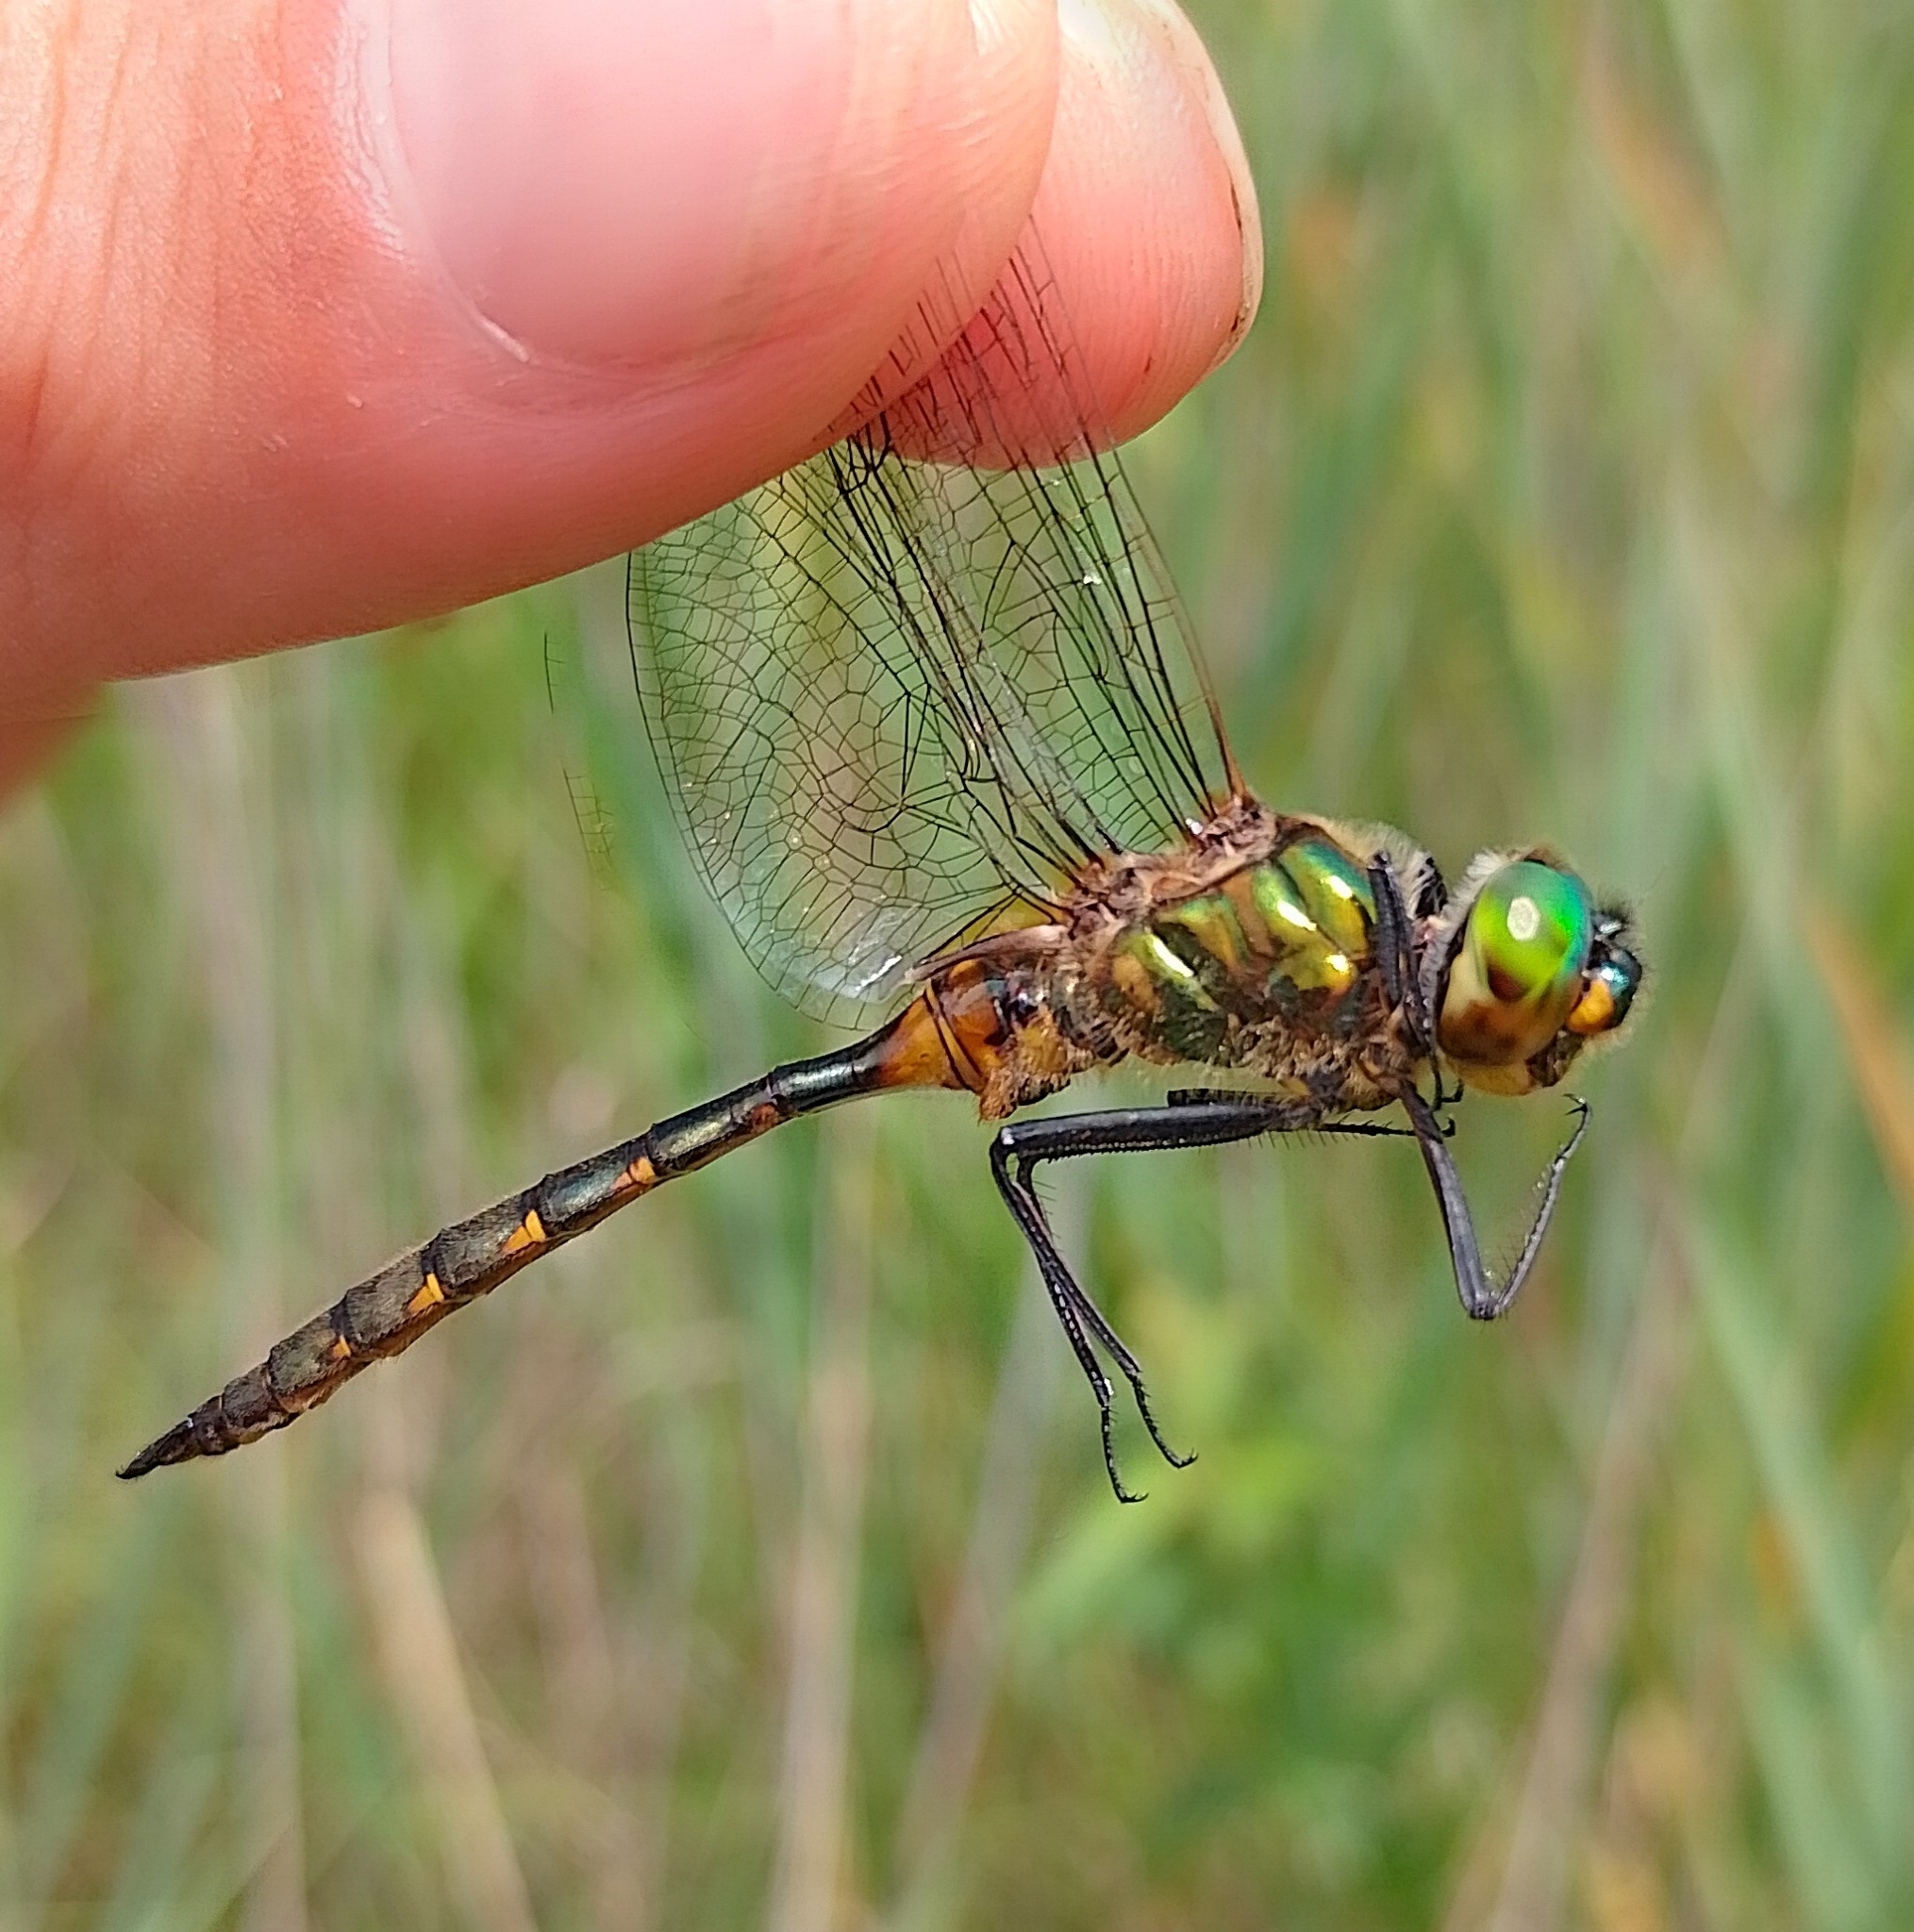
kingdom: Animalia
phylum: Arthropoda
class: Insecta
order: Odonata
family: Corduliidae
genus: Somatochlora
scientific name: Somatochlora flavomaculata
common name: Yellow-spotted emerald
